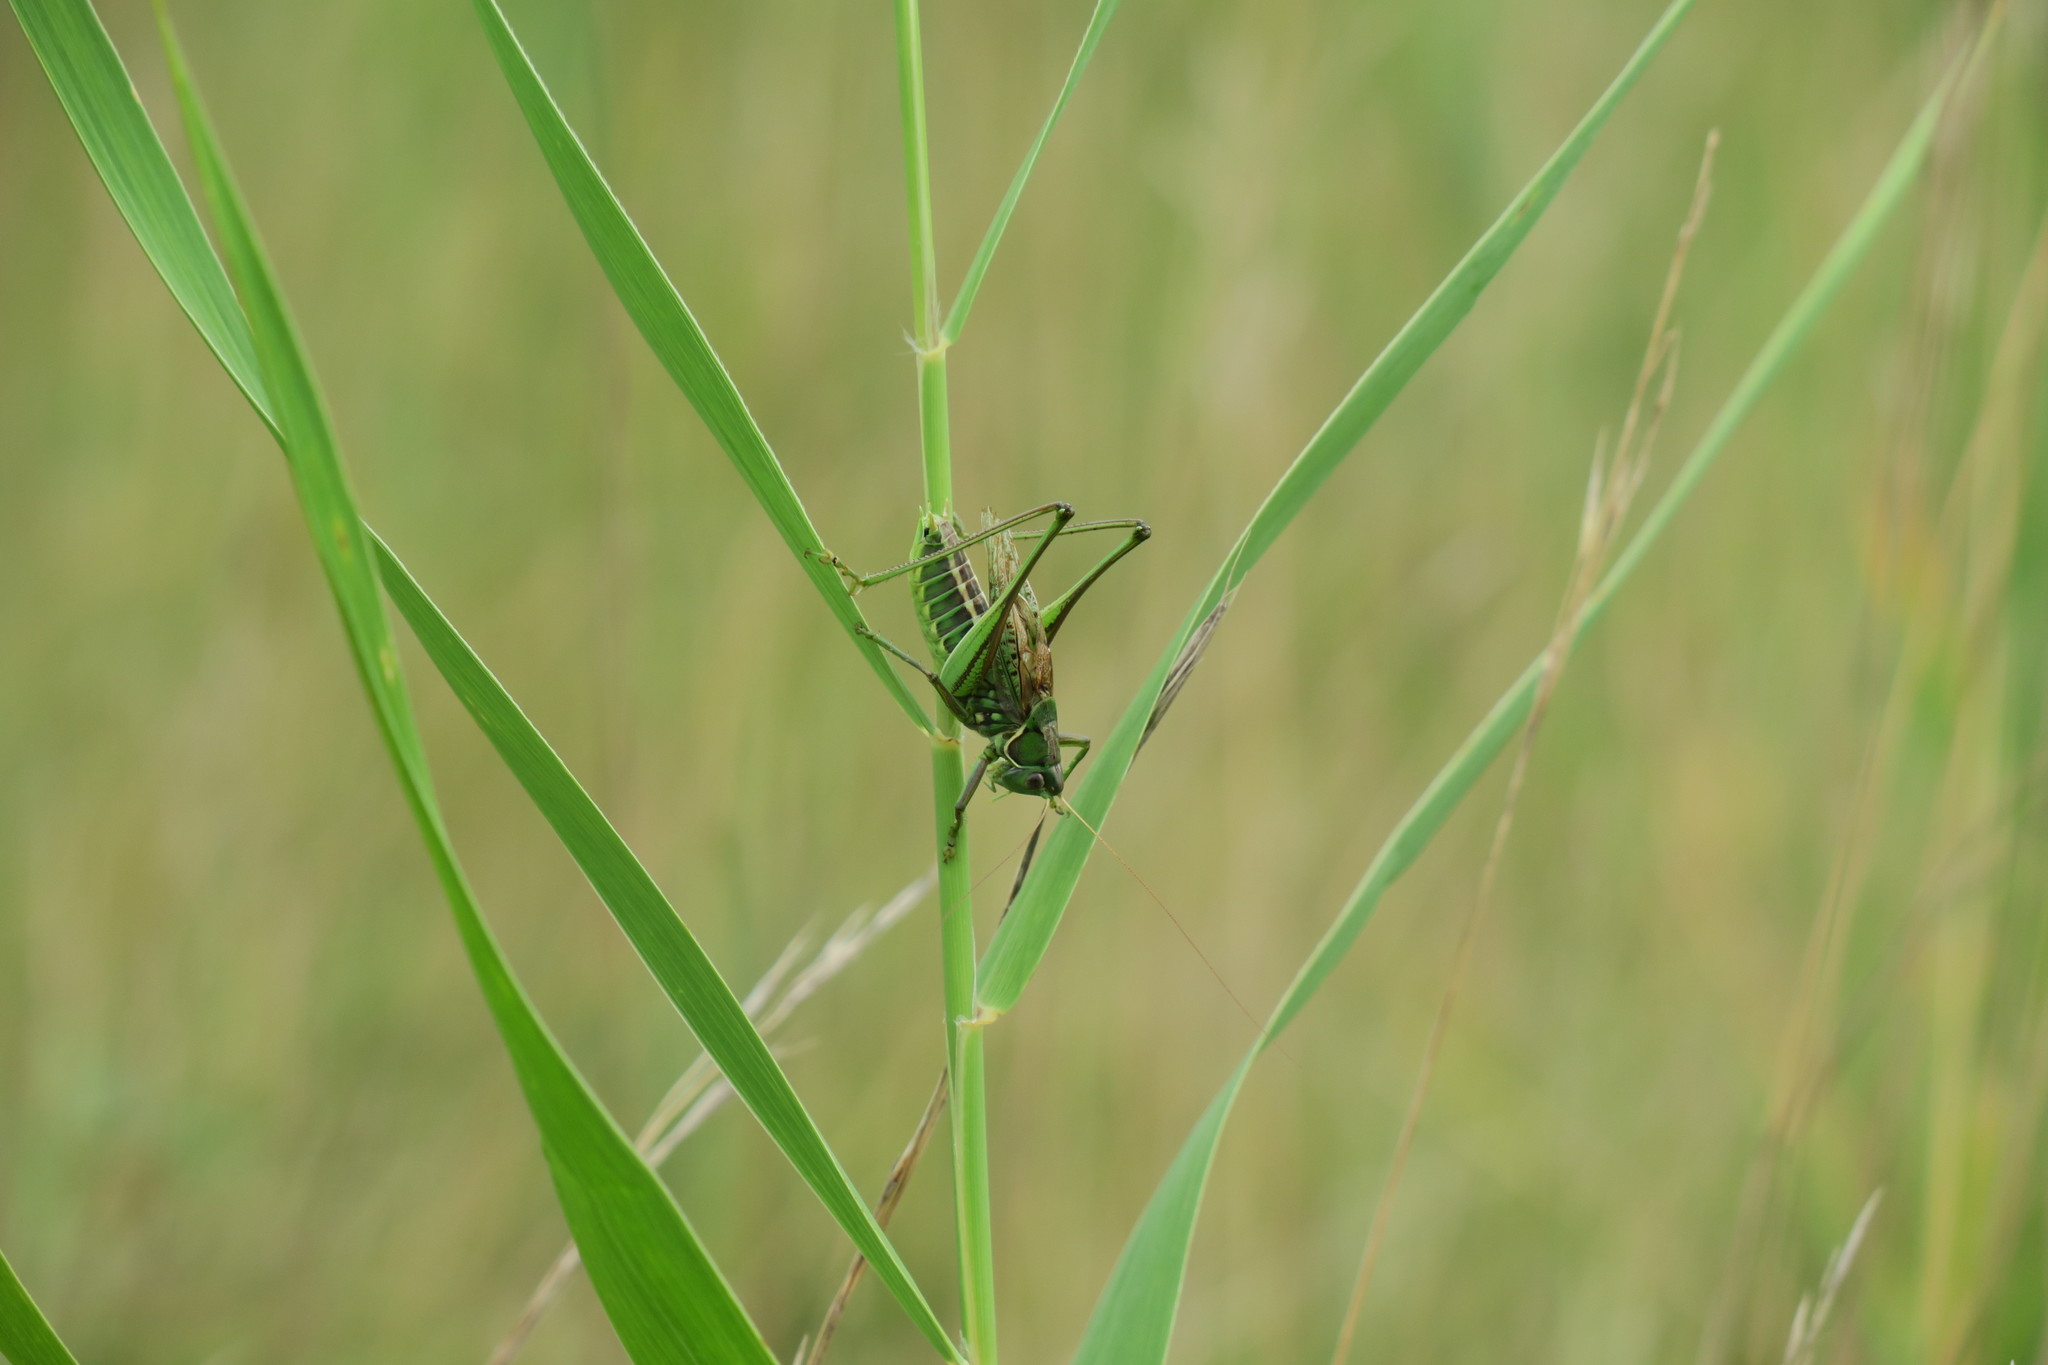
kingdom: Animalia
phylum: Arthropoda
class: Insecta
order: Orthoptera
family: Tettigoniidae
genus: Gampsocleis
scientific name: Gampsocleis glabra
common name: Heath bushcricket
